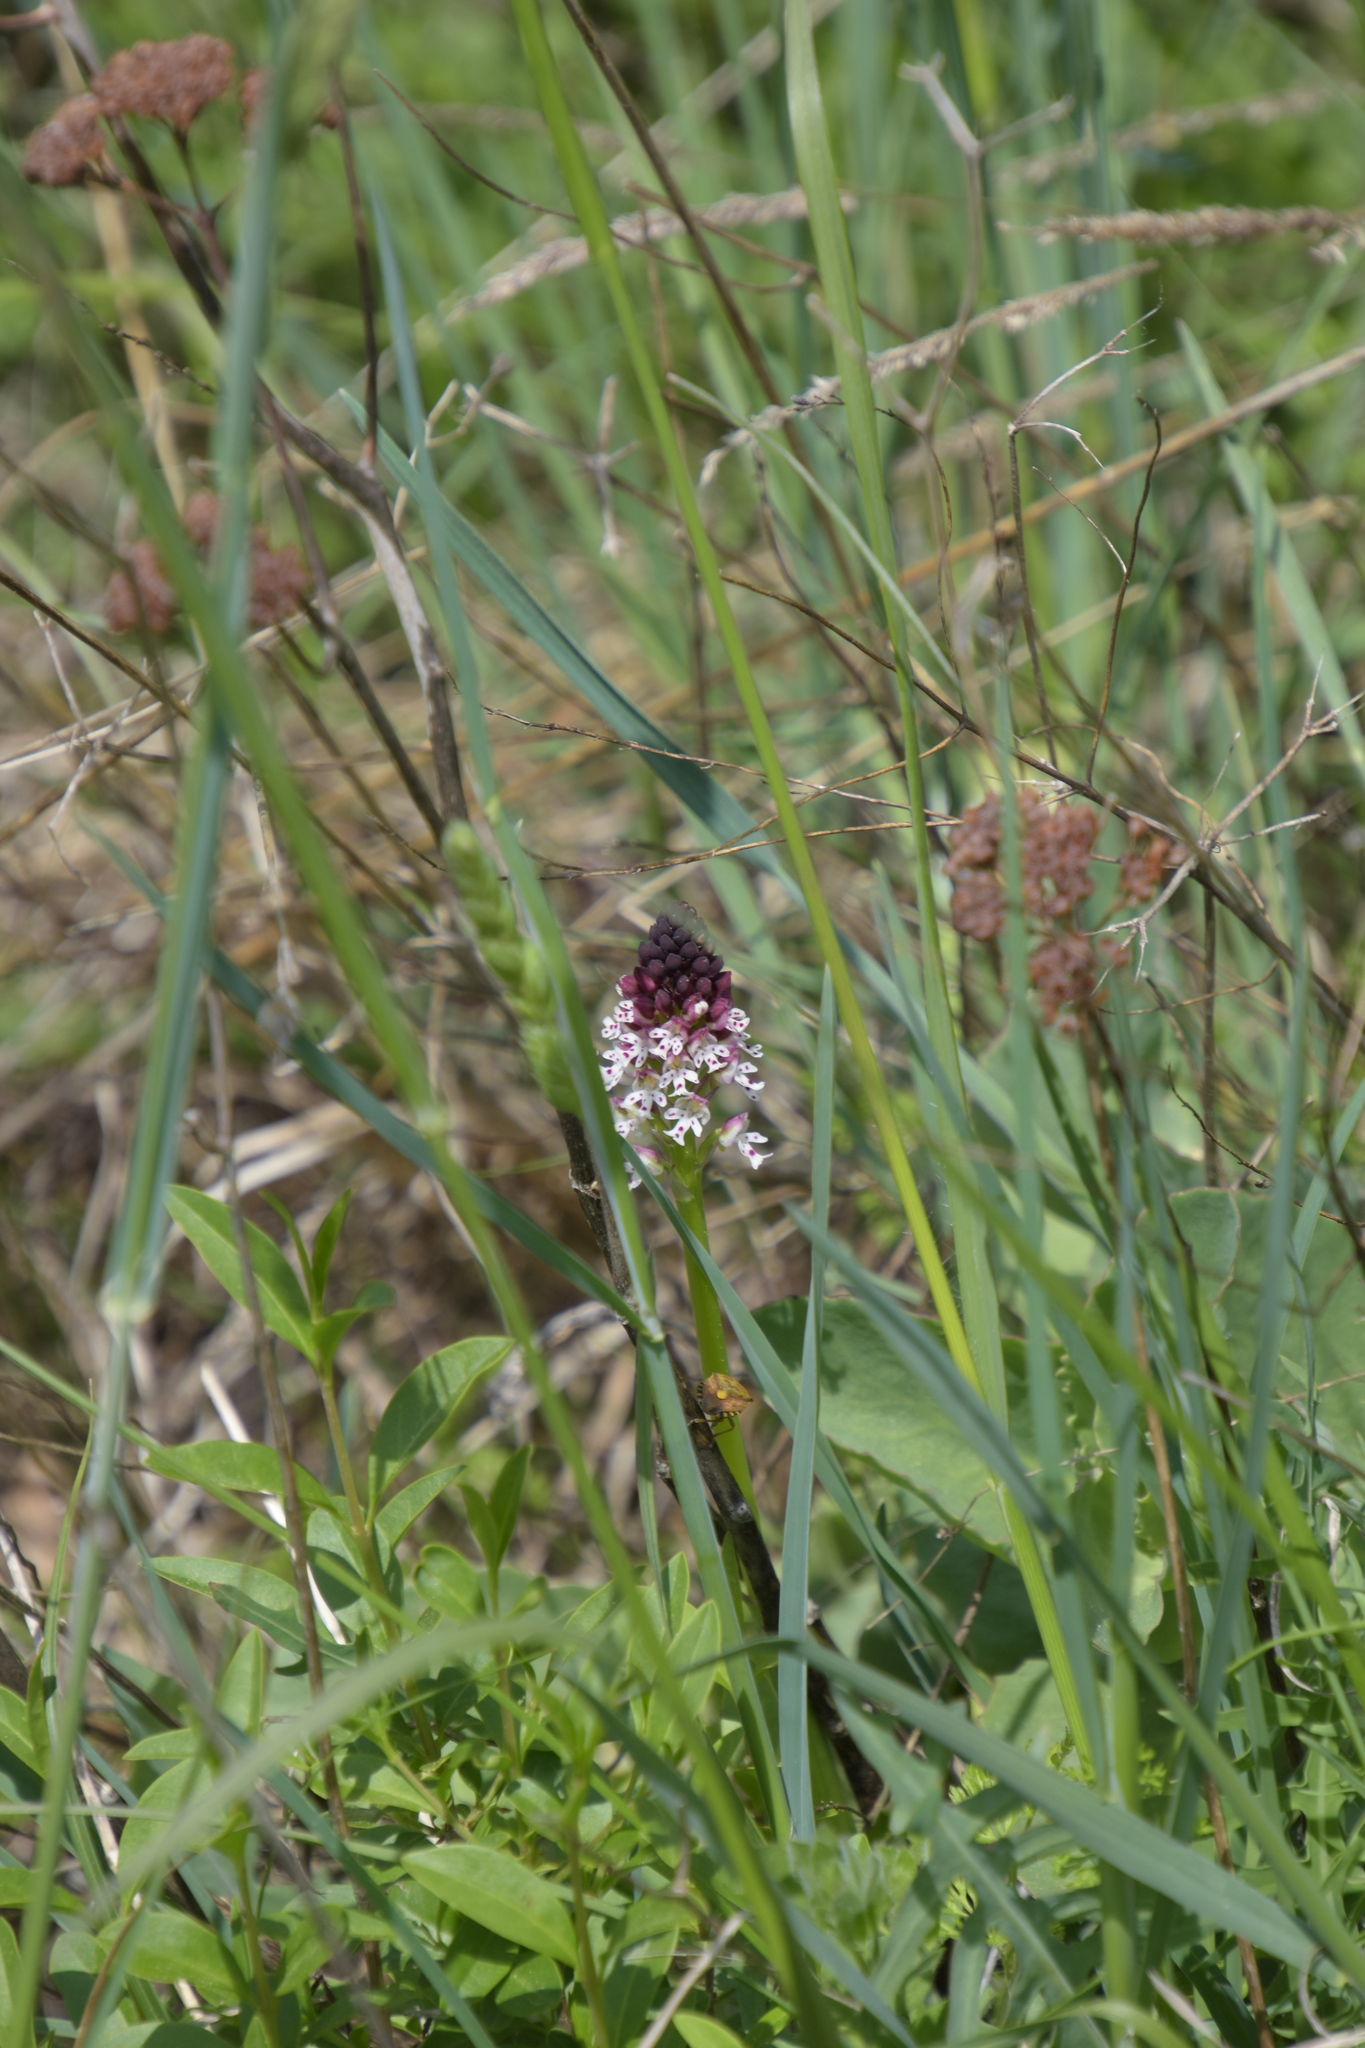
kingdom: Plantae
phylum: Tracheophyta
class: Liliopsida
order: Asparagales
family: Orchidaceae
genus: Neotinea
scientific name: Neotinea ustulata
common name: Burnt orchid
